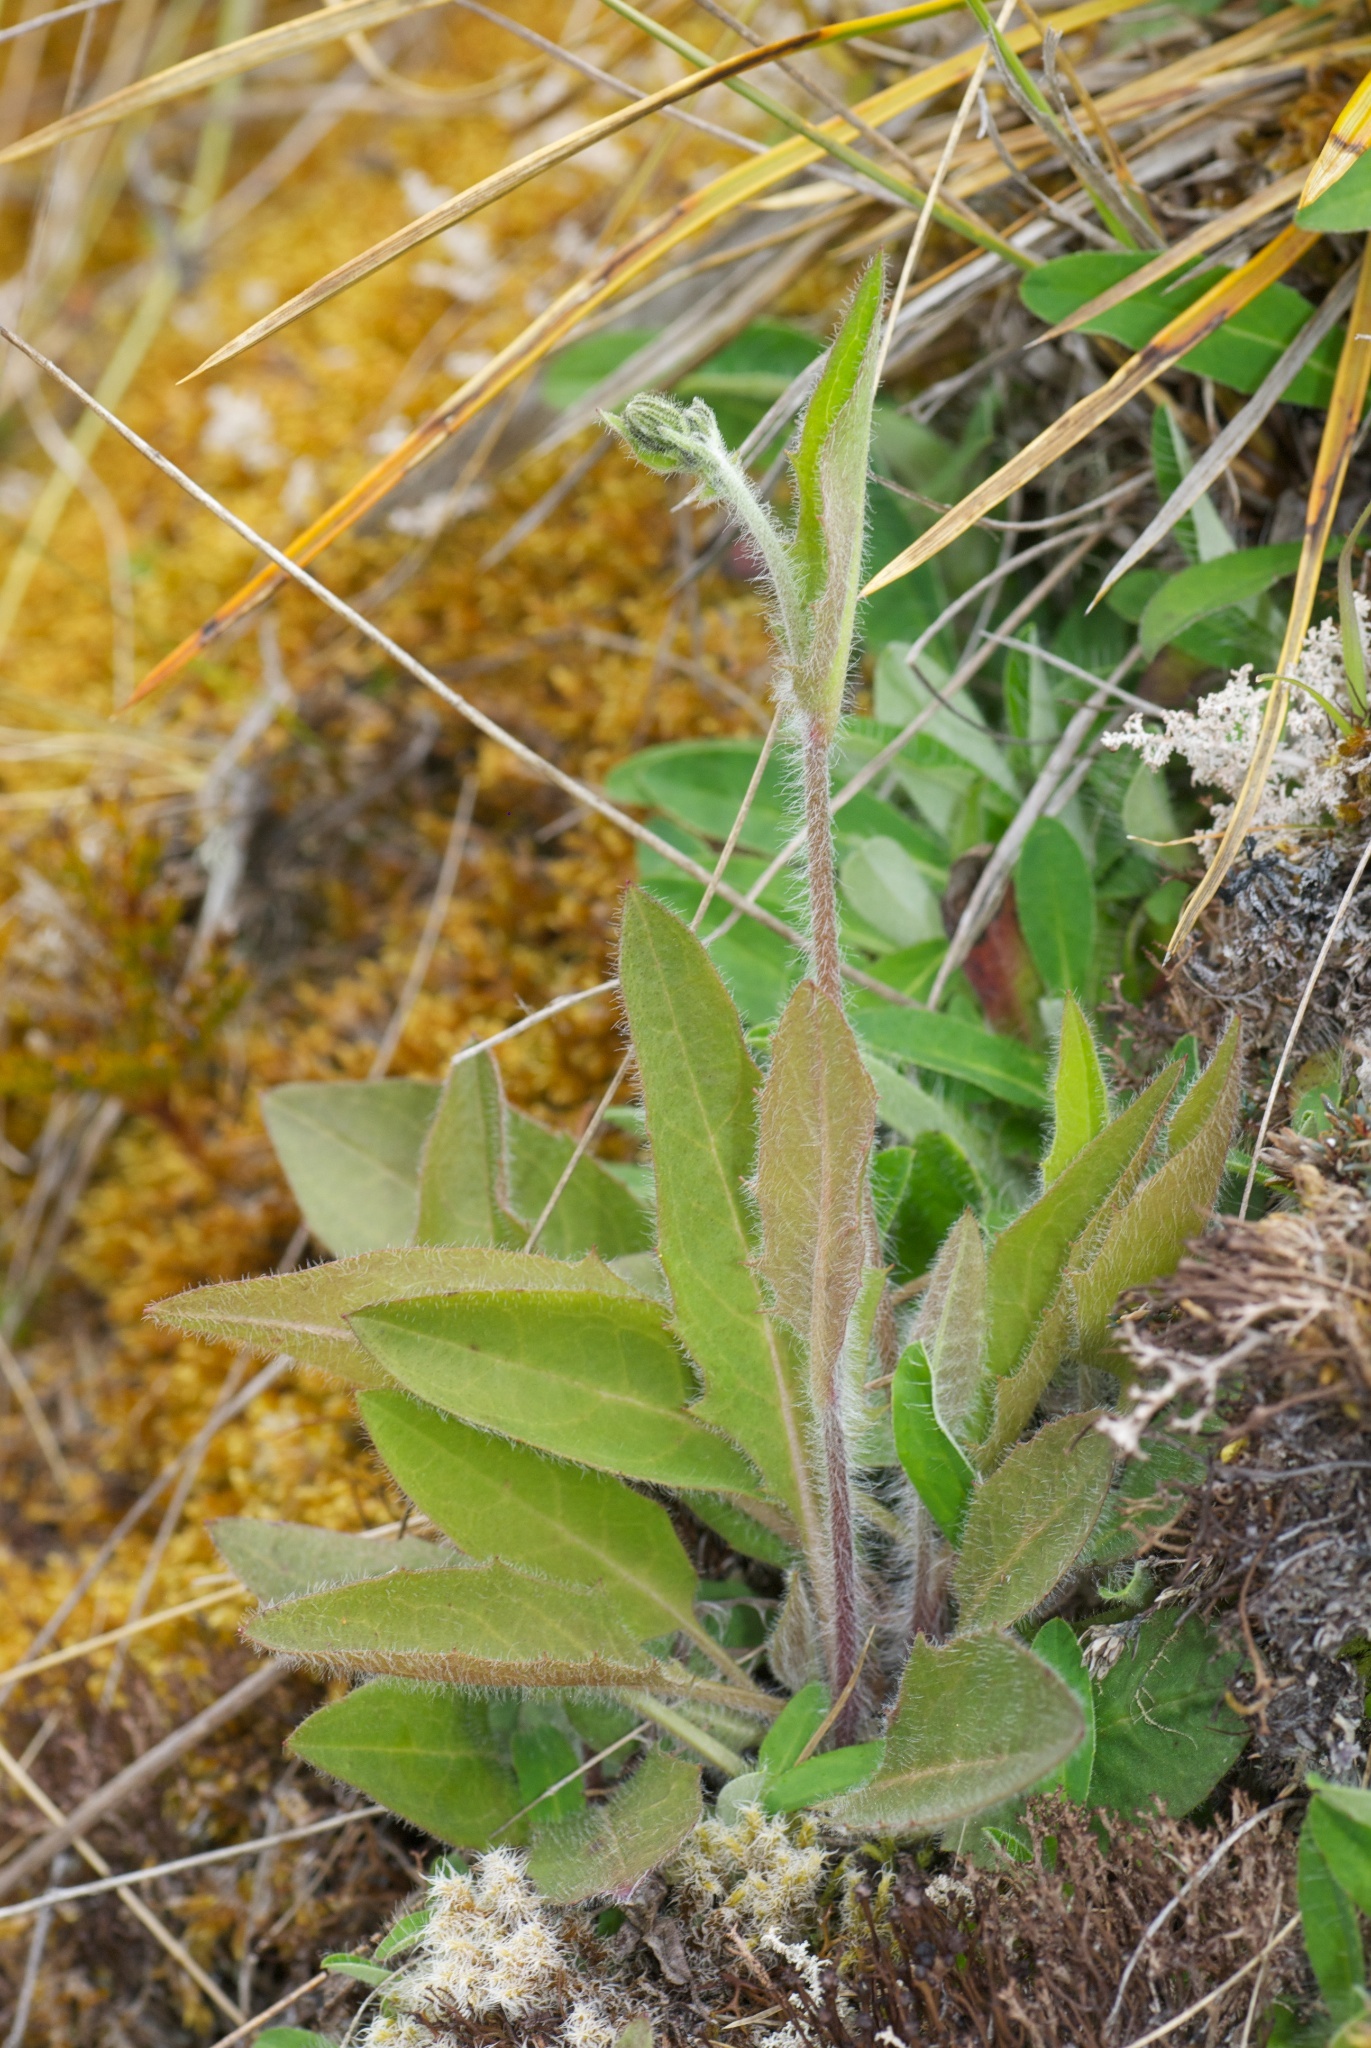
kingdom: Plantae
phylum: Tracheophyta
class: Magnoliopsida
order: Asterales
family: Asteraceae
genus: Hieracium
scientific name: Hieracium lepidulum
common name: Irregular-toothed hawkweed
